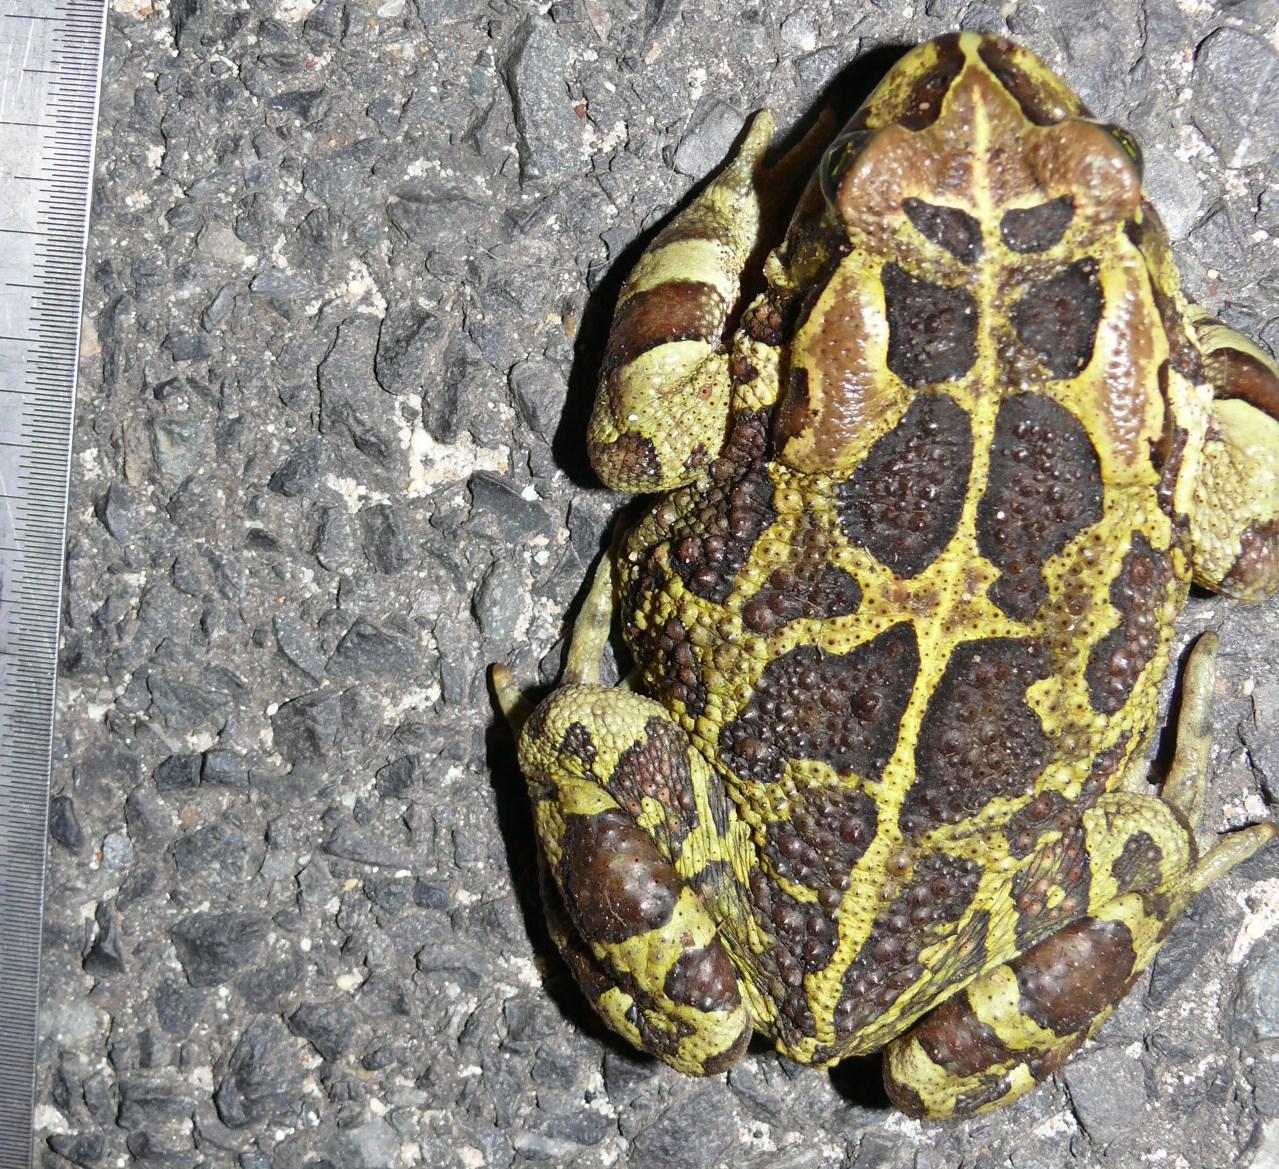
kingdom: Animalia
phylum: Chordata
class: Amphibia
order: Anura
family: Bufonidae
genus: Sclerophrys
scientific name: Sclerophrys pantherina
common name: Panther toad
